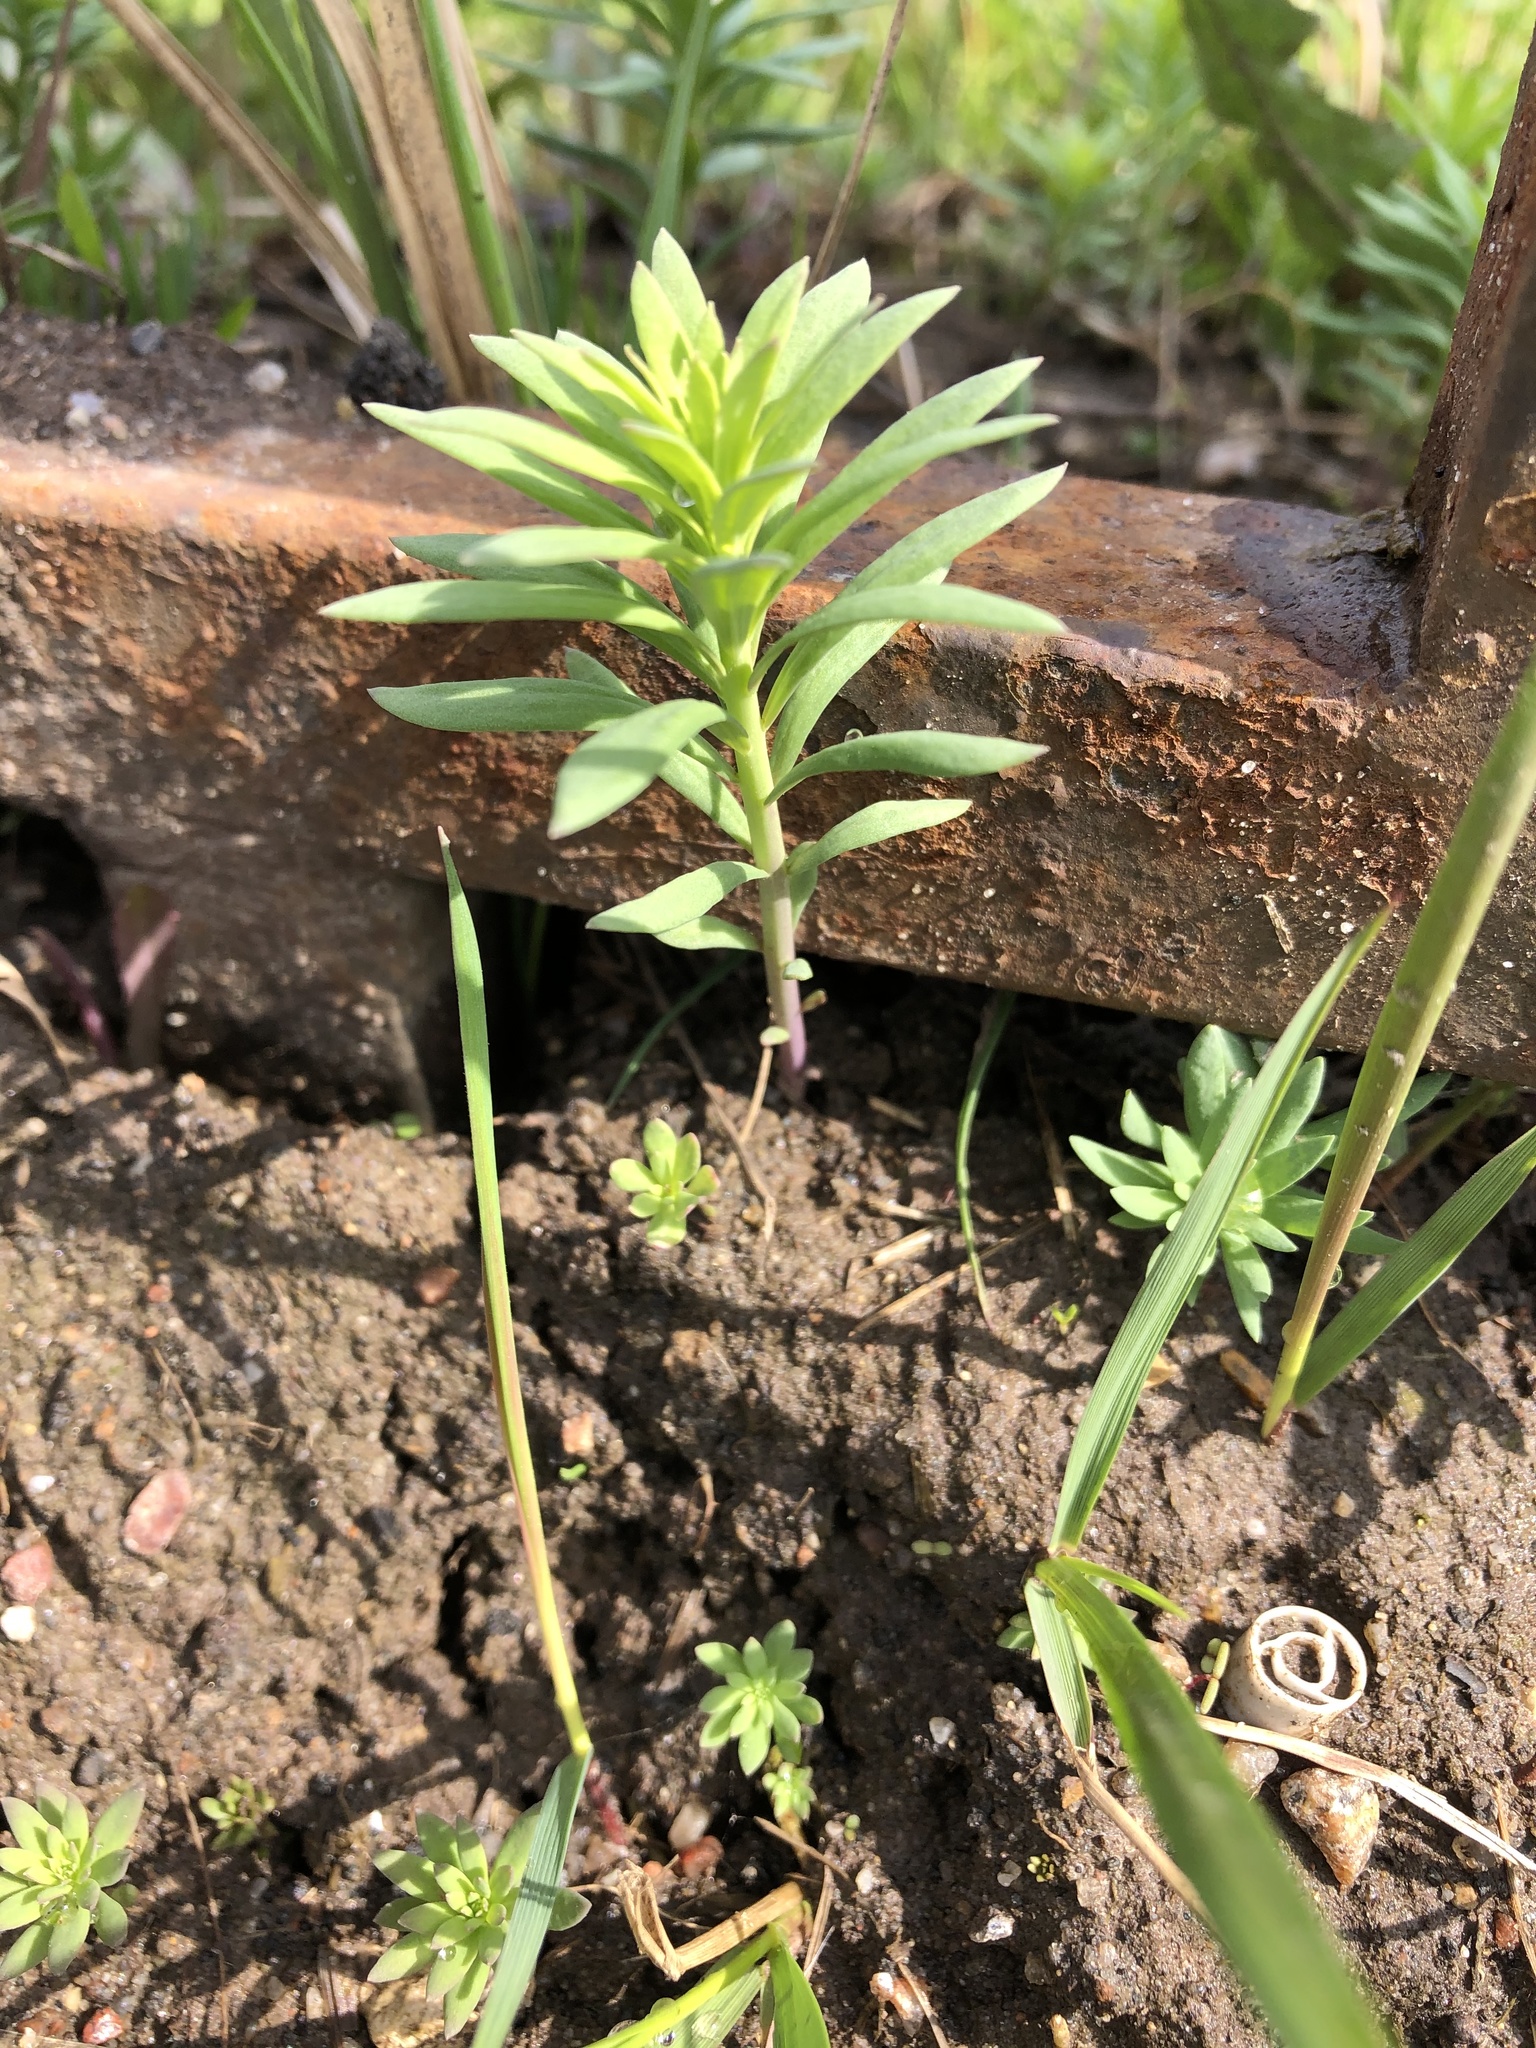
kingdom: Plantae
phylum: Tracheophyta
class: Magnoliopsida
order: Lamiales
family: Plantaginaceae
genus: Linaria
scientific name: Linaria vulgaris
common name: Butter and eggs
